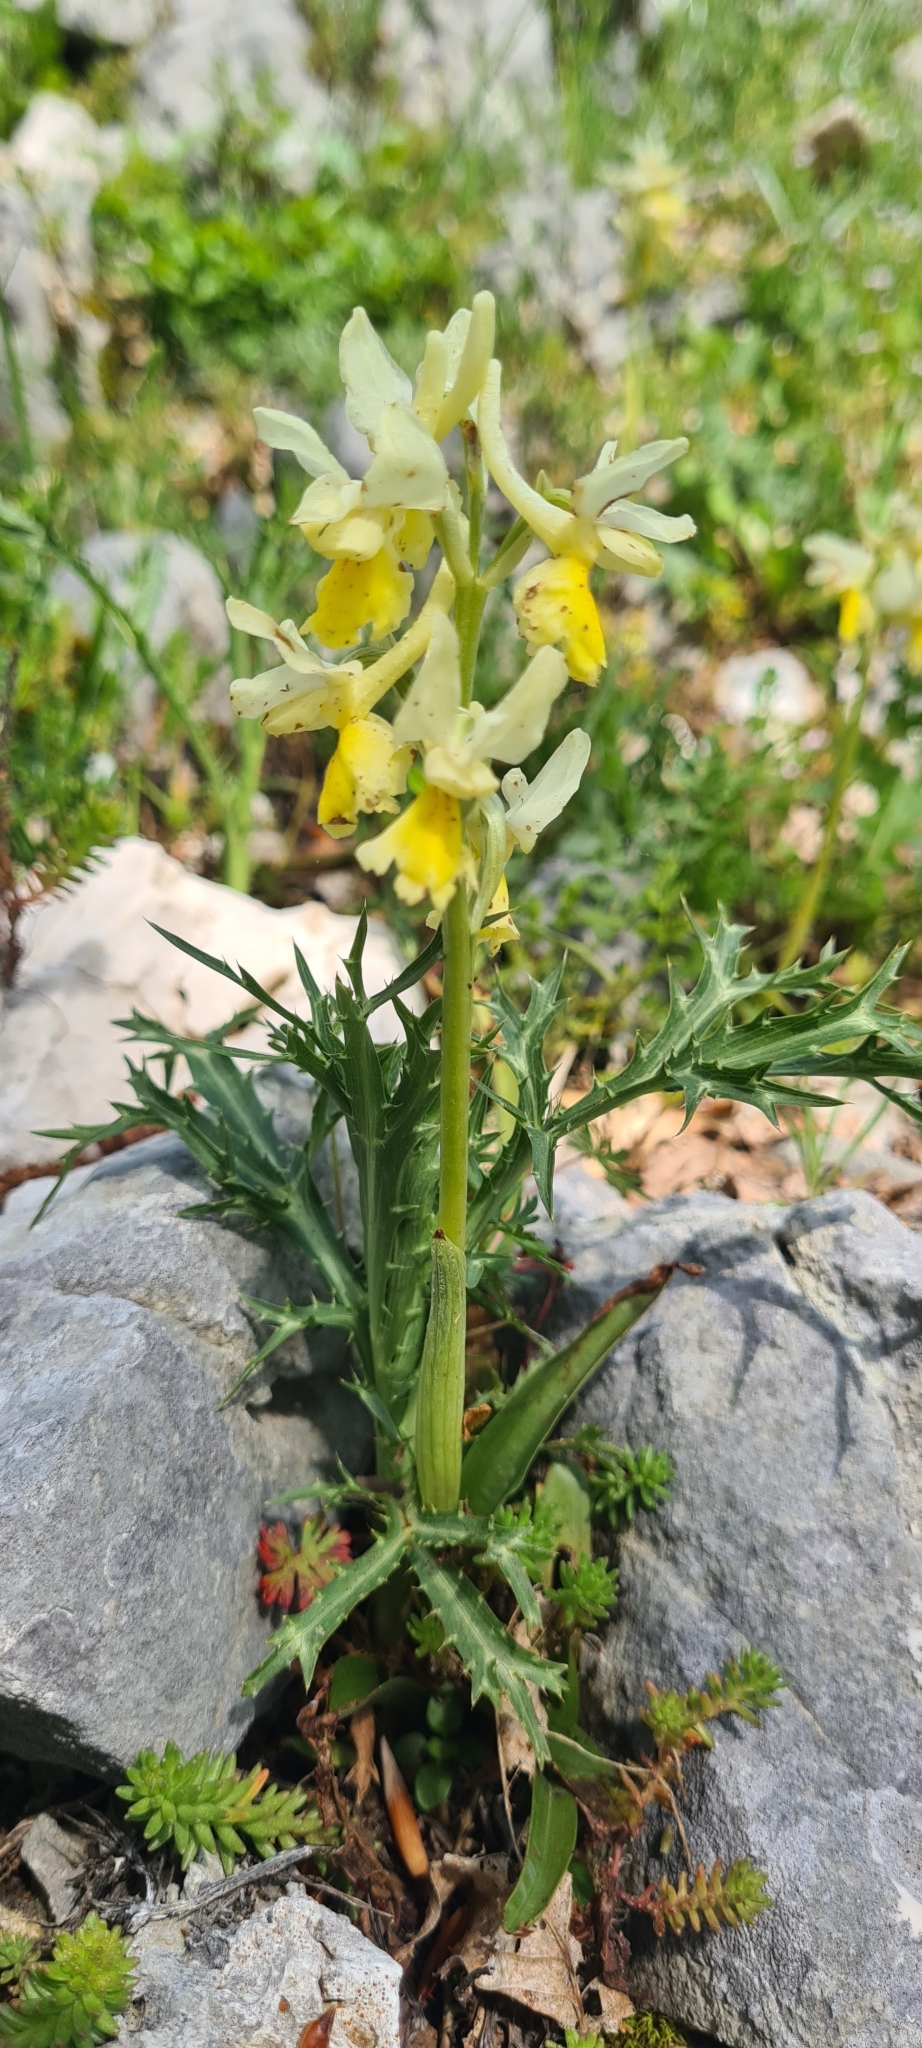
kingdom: Plantae
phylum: Tracheophyta
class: Liliopsida
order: Asparagales
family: Orchidaceae
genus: Orchis
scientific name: Orchis pauciflora
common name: Few-flowered orchid
